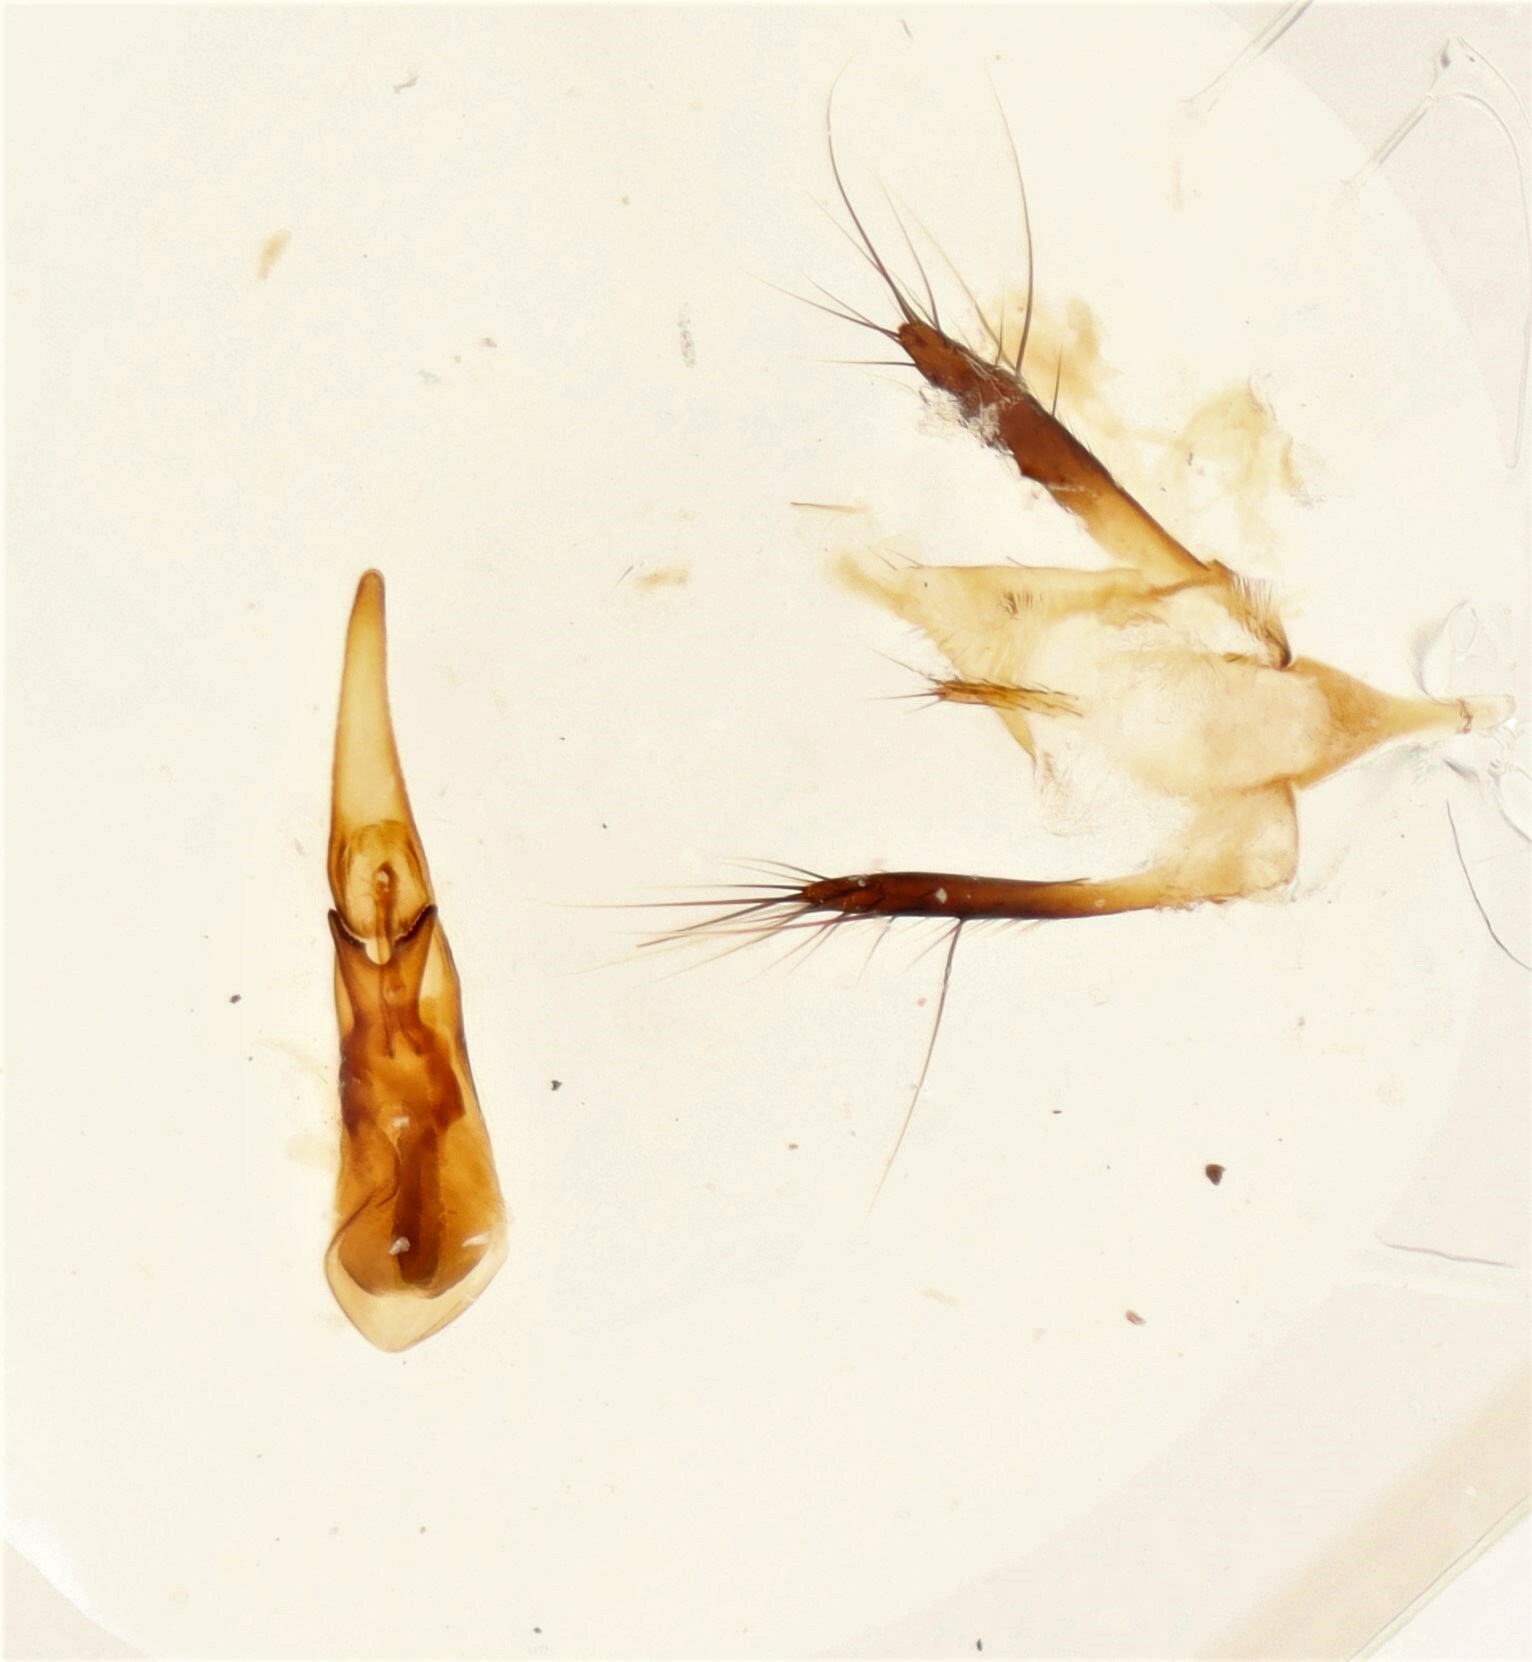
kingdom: Animalia
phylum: Arthropoda
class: Insecta
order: Coleoptera
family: Staphylinidae
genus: Gabrius
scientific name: Gabrius astutoides
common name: Rove beetle
